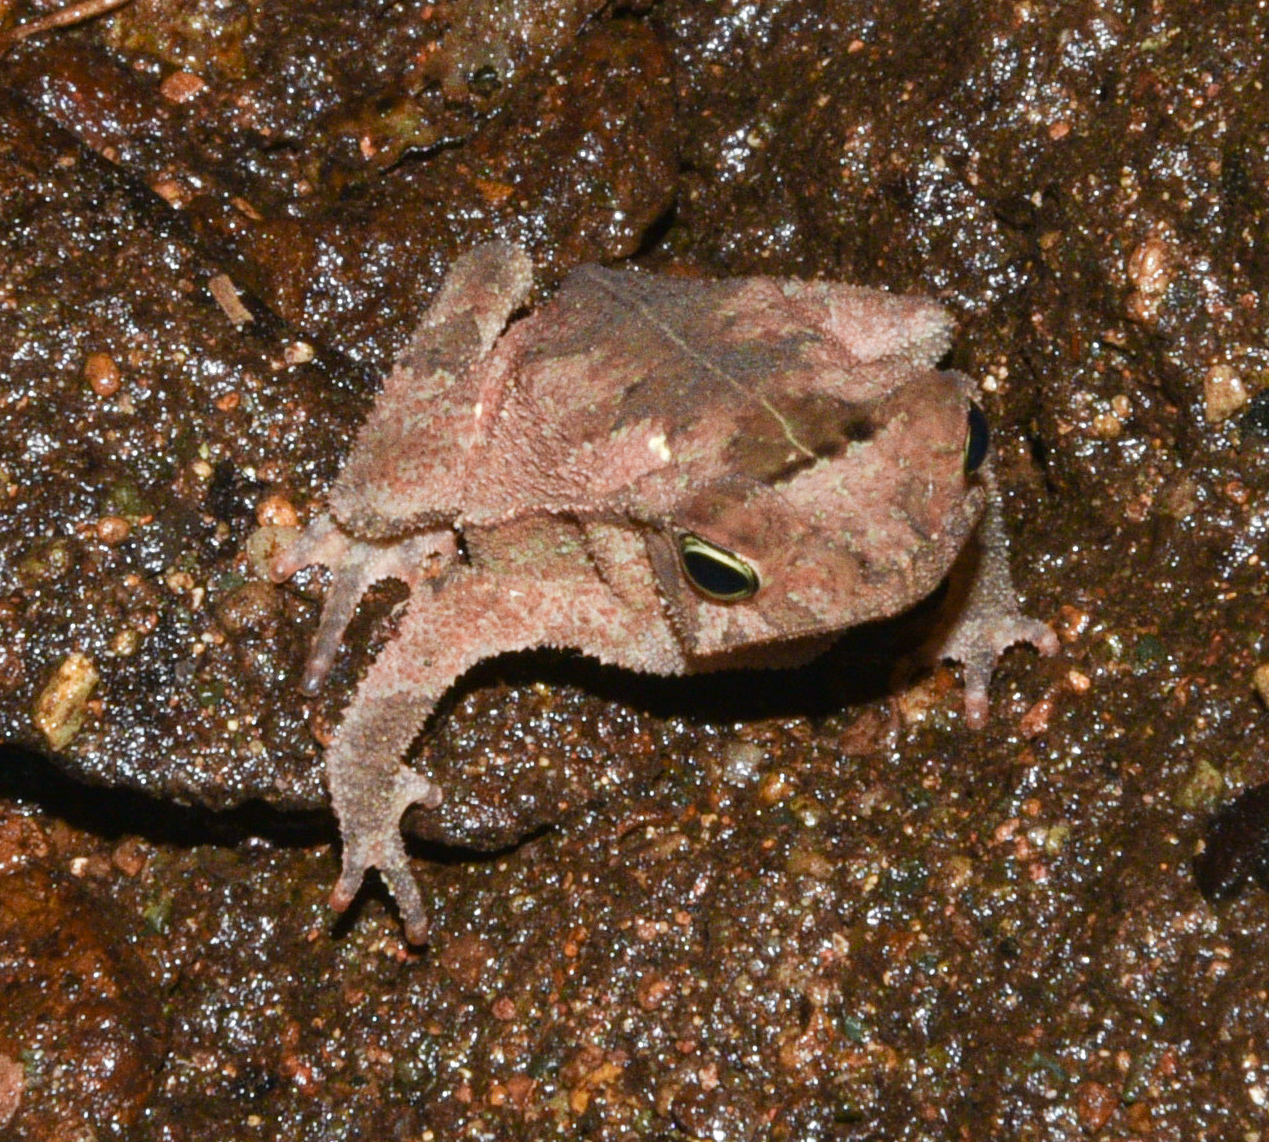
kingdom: Animalia
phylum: Chordata
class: Amphibia
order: Anura
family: Bufonidae
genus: Rhinella
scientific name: Rhinella alata
